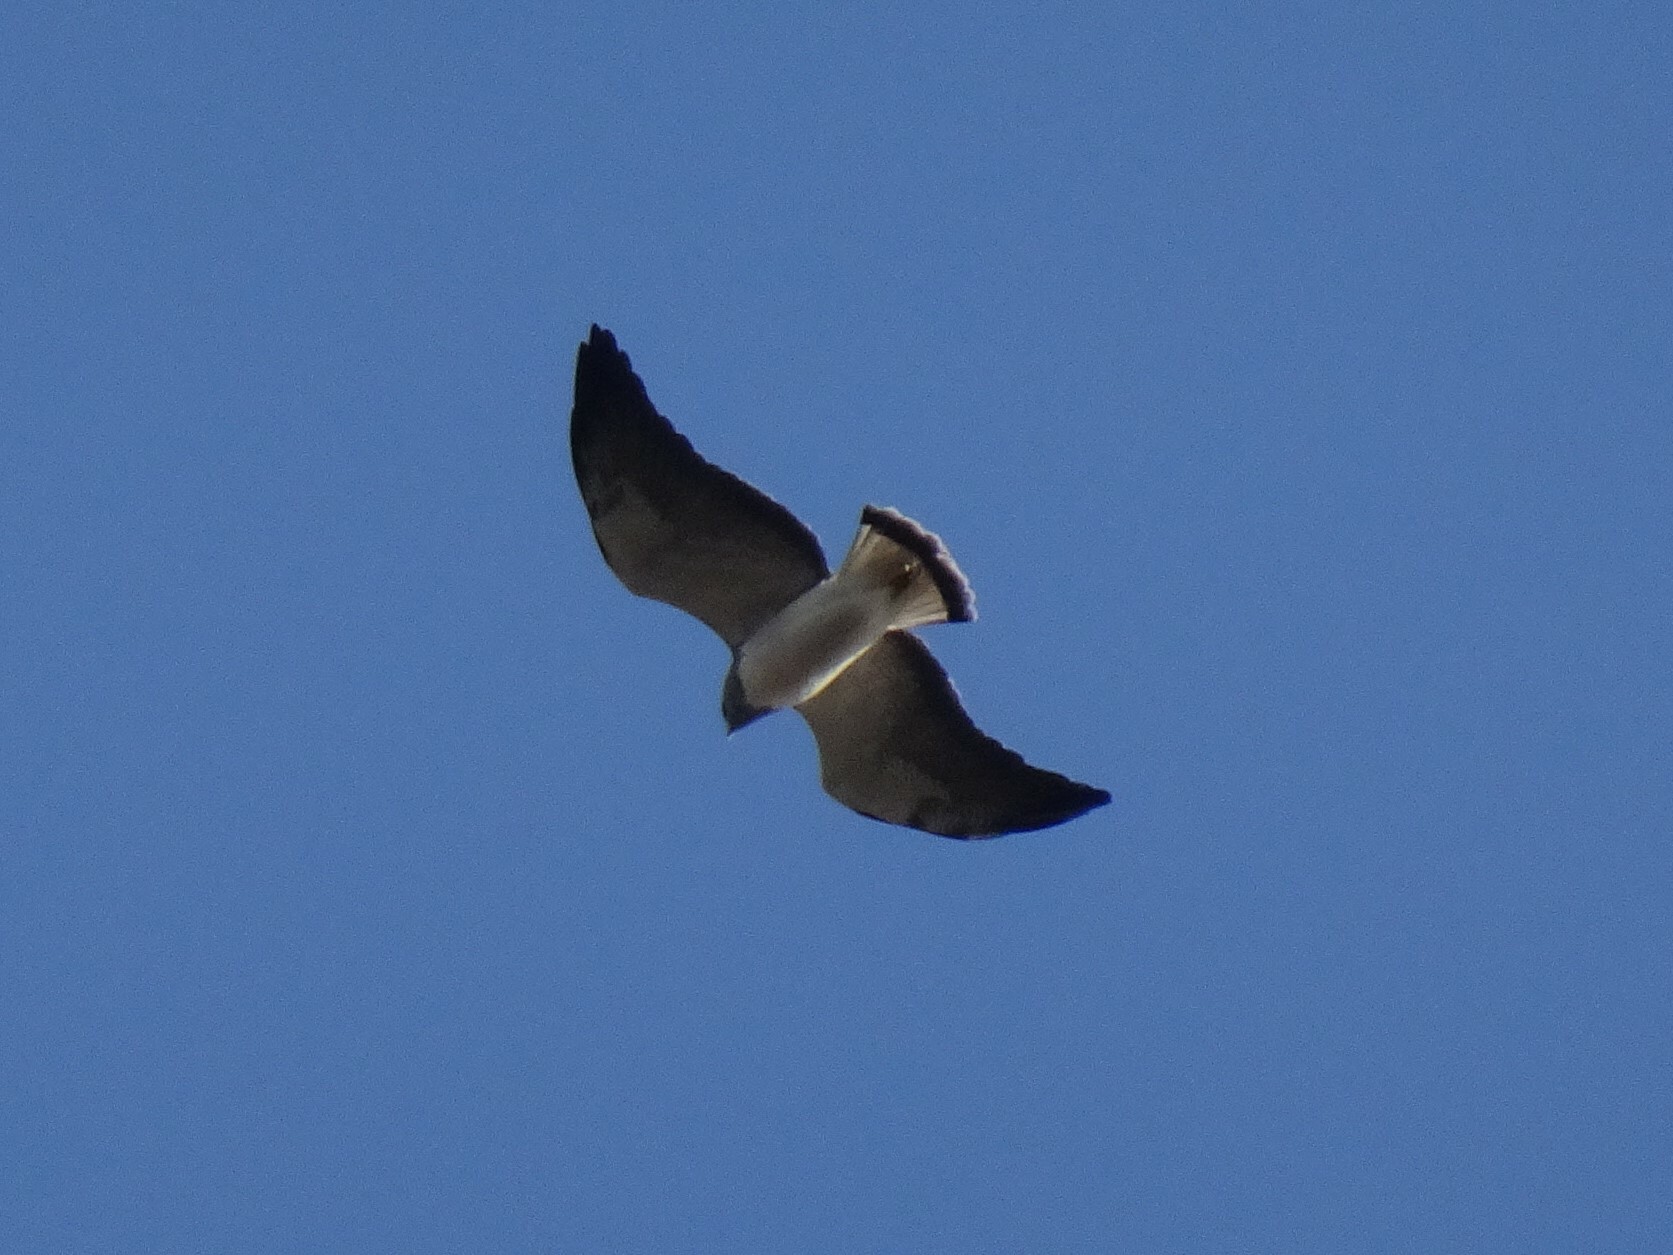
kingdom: Animalia
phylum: Chordata
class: Aves
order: Accipitriformes
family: Accipitridae
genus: Buteo
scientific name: Buteo albicaudatus
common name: White-tailed hawk
